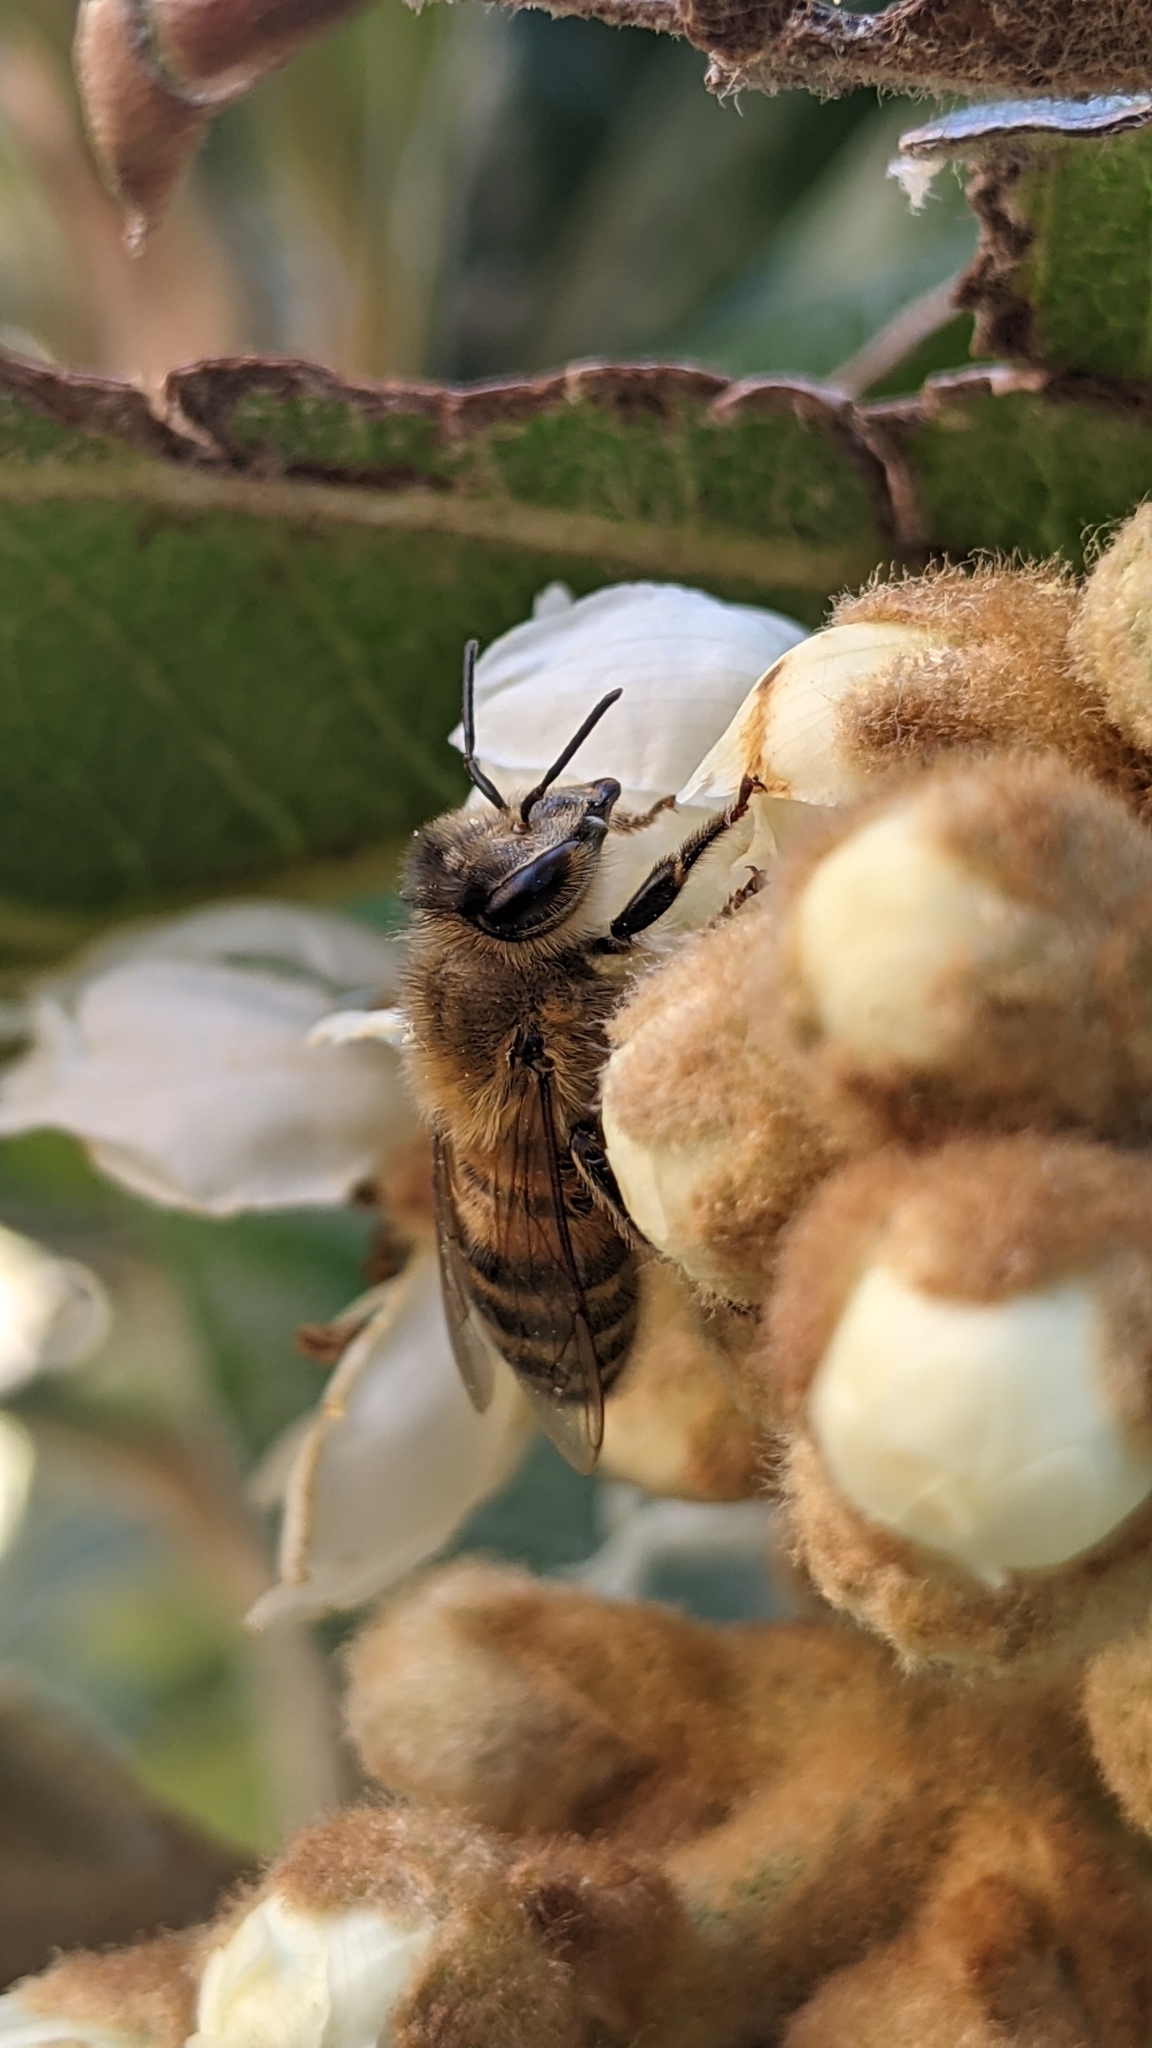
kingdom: Animalia
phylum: Arthropoda
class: Insecta
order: Hymenoptera
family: Apidae
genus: Apis
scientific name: Apis mellifera
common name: Honey bee
